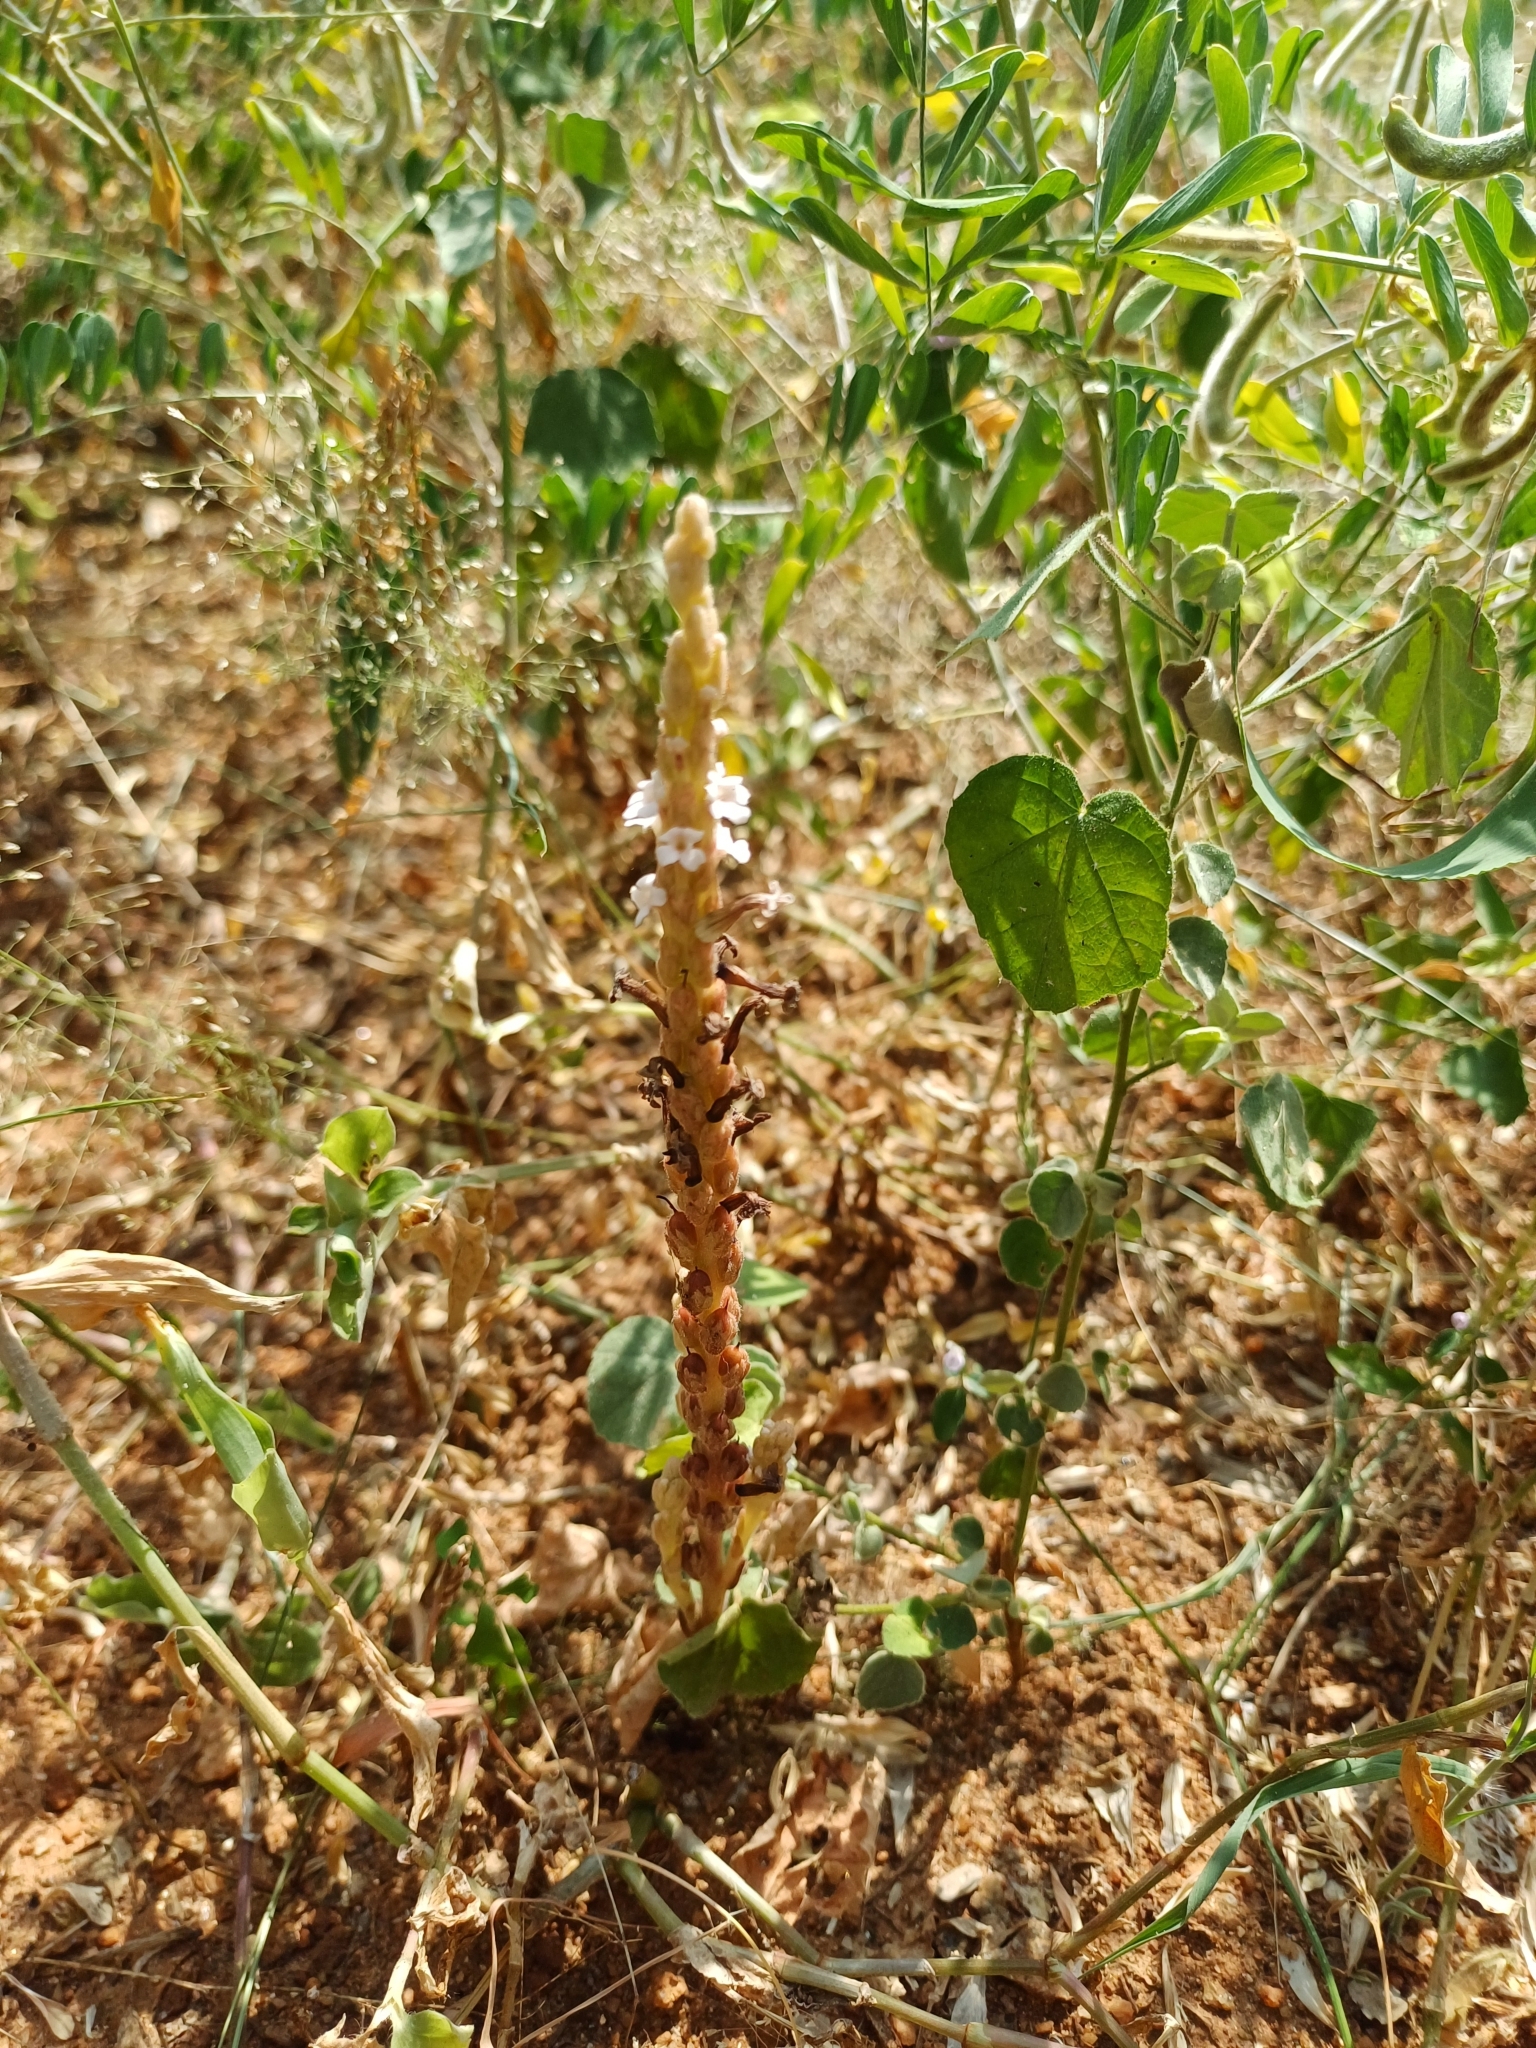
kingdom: Plantae
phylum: Tracheophyta
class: Magnoliopsida
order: Lamiales
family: Orobanchaceae
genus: Striga
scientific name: Striga gesnerioides
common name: Cowpea witchweed
